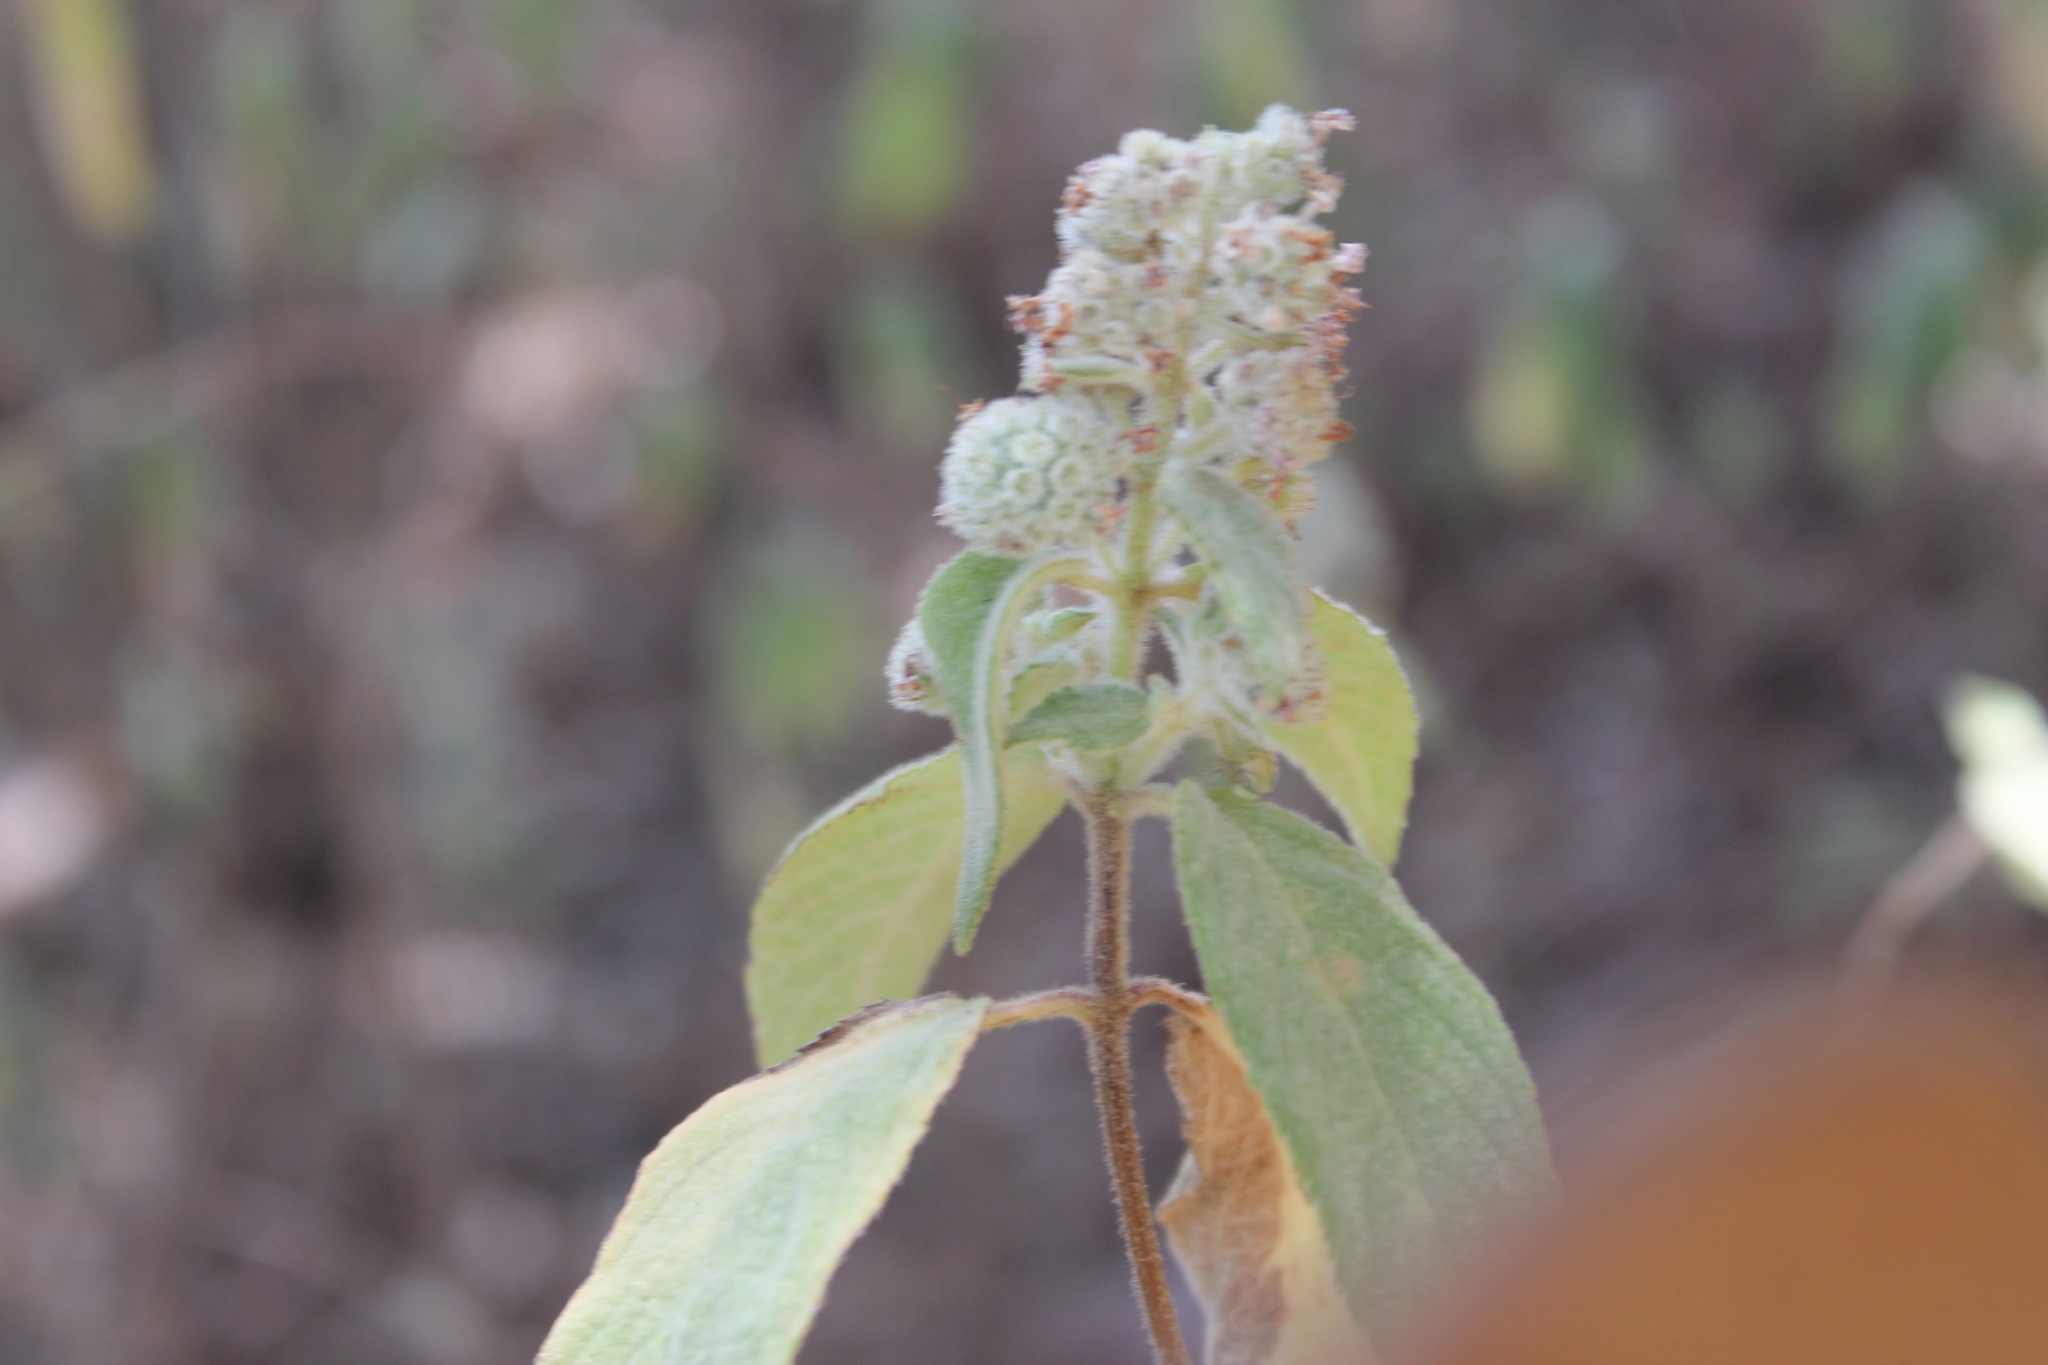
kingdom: Plantae
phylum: Tracheophyta
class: Magnoliopsida
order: Lamiales
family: Lamiaceae
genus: Mesosphaerum
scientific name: Mesosphaerum oblongifolium
